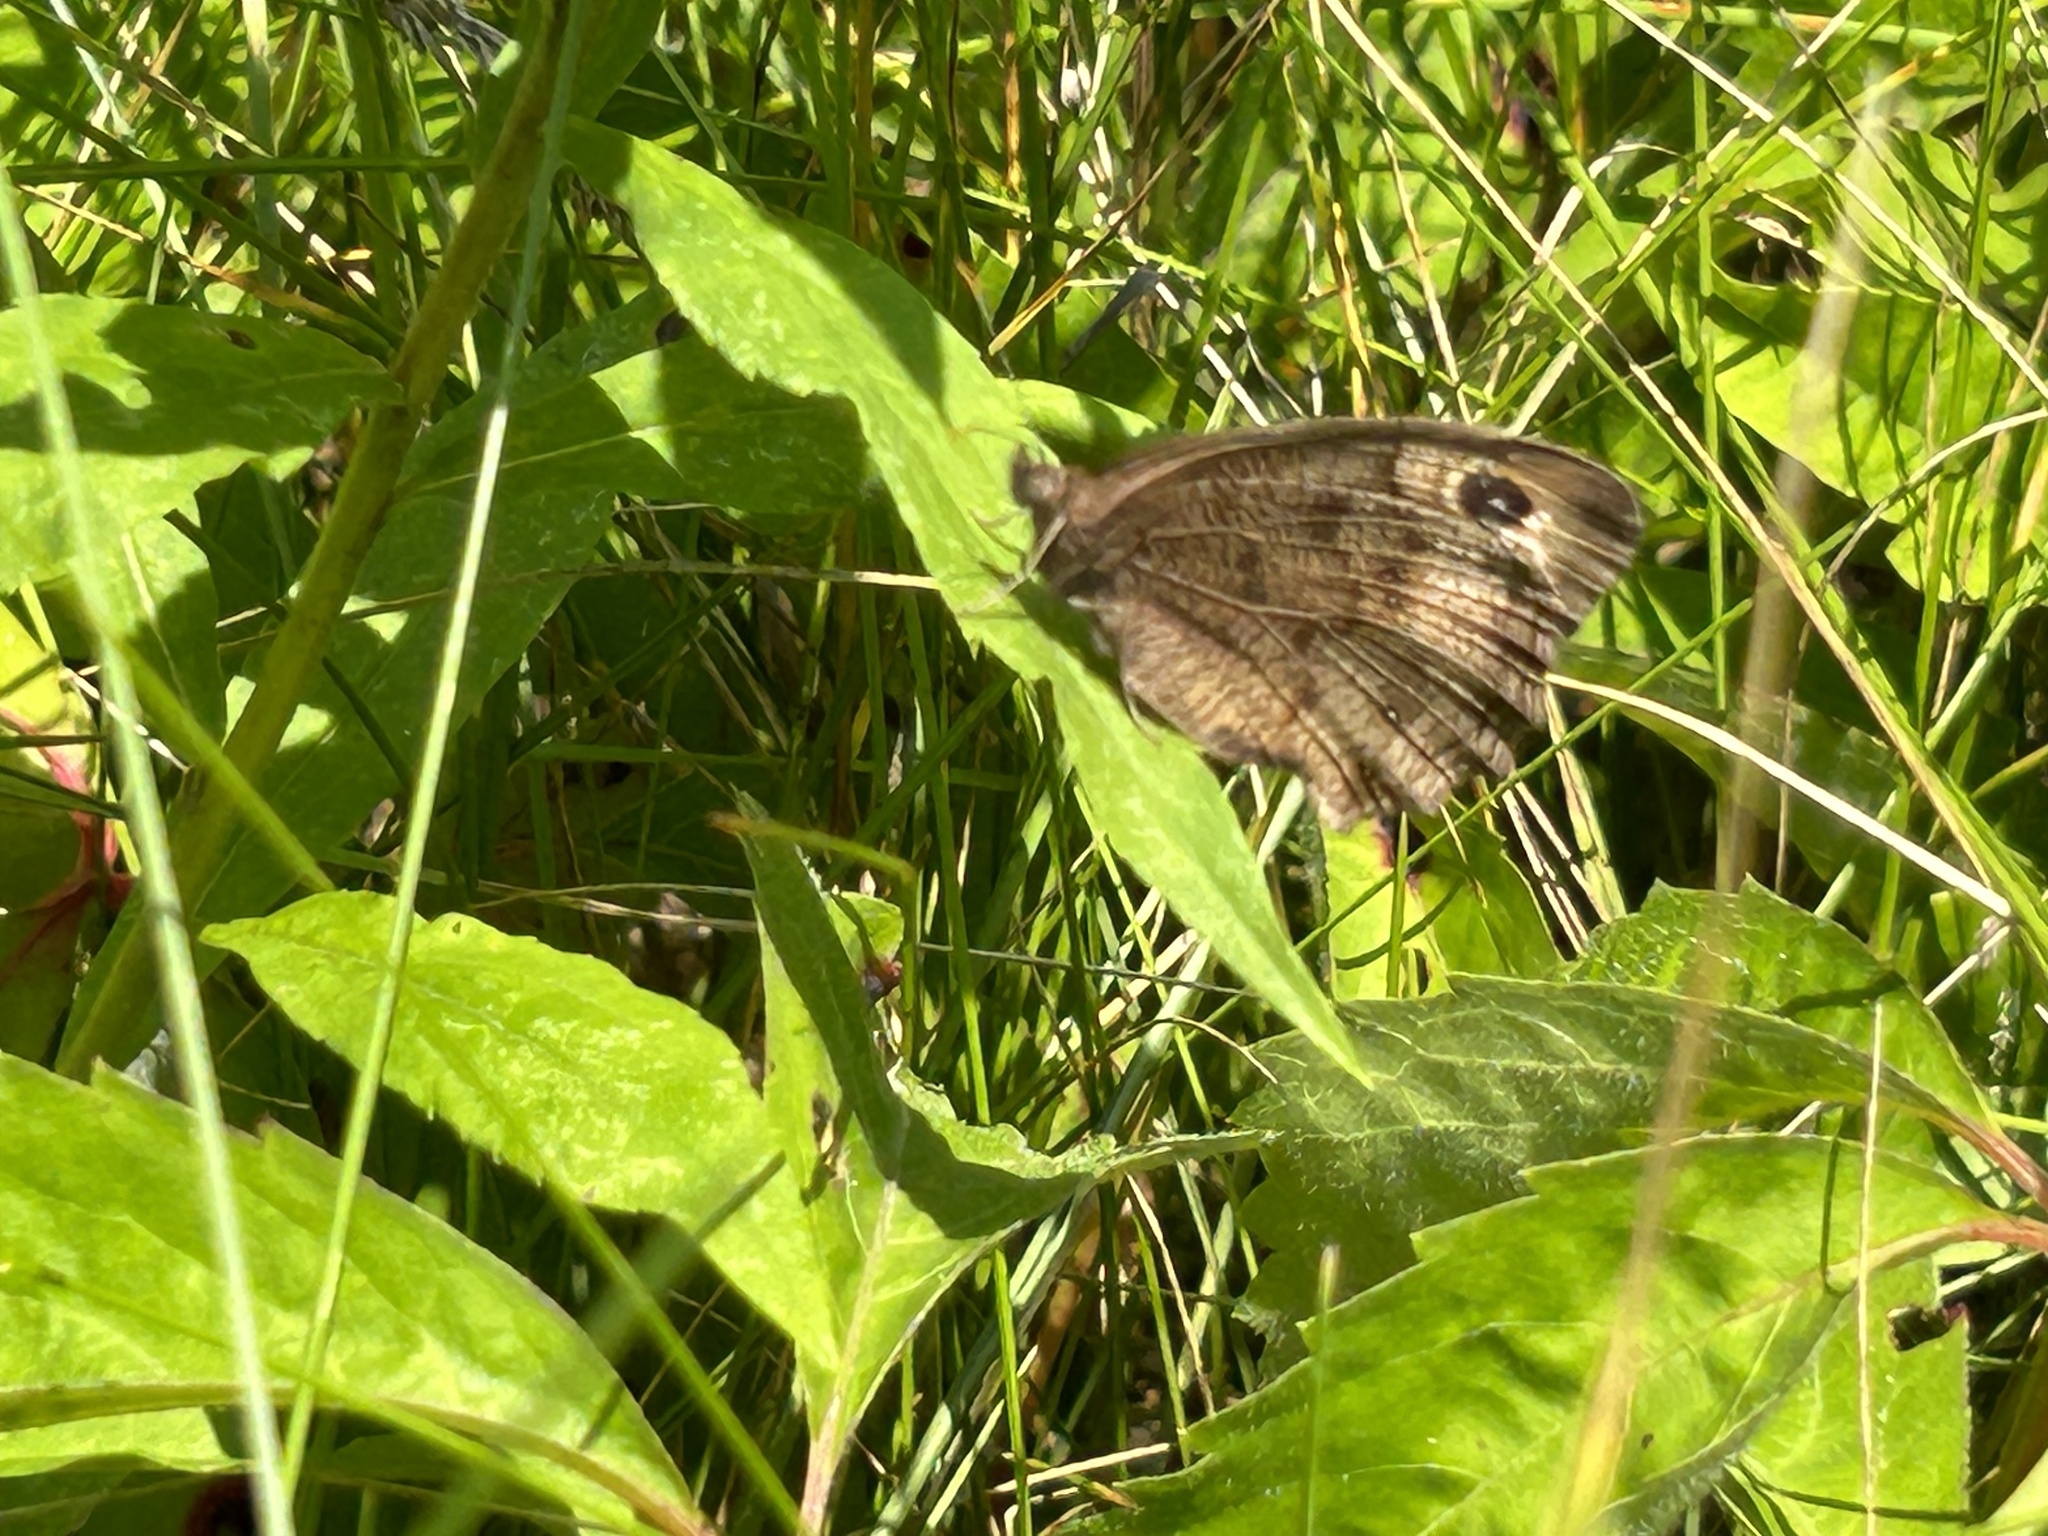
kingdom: Animalia
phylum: Arthropoda
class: Insecta
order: Lepidoptera
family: Nymphalidae
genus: Cercyonis
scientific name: Cercyonis pegala
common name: Common wood-nymph
